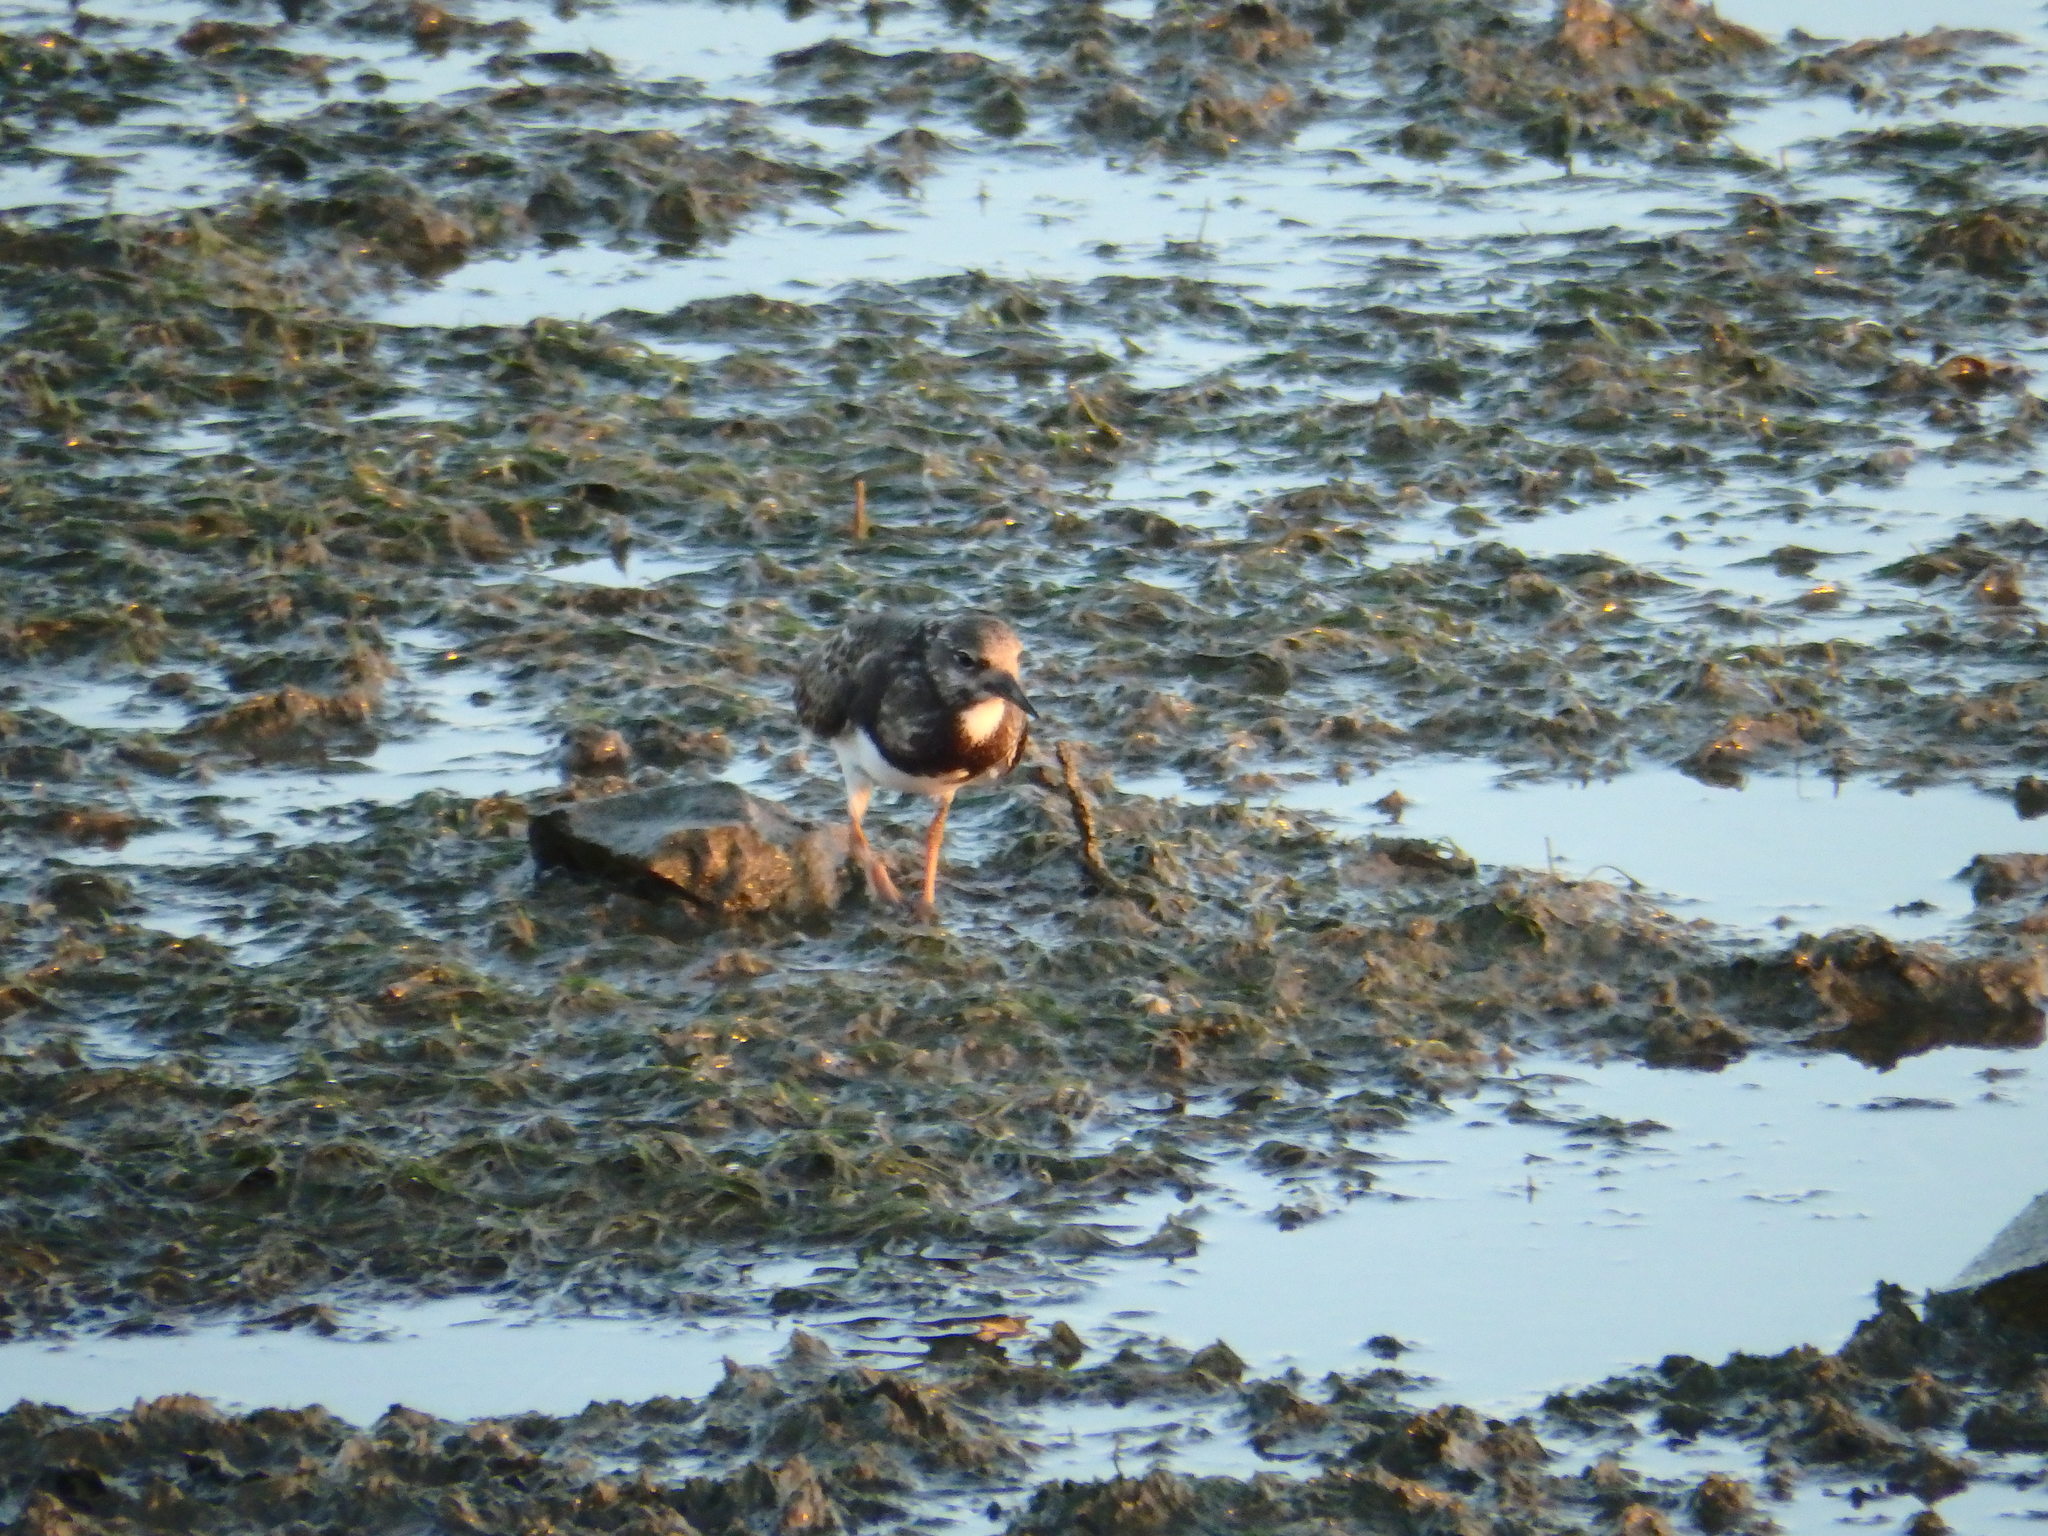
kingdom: Animalia
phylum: Chordata
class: Aves
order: Charadriiformes
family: Scolopacidae
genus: Arenaria
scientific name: Arenaria interpres
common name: Ruddy turnstone
